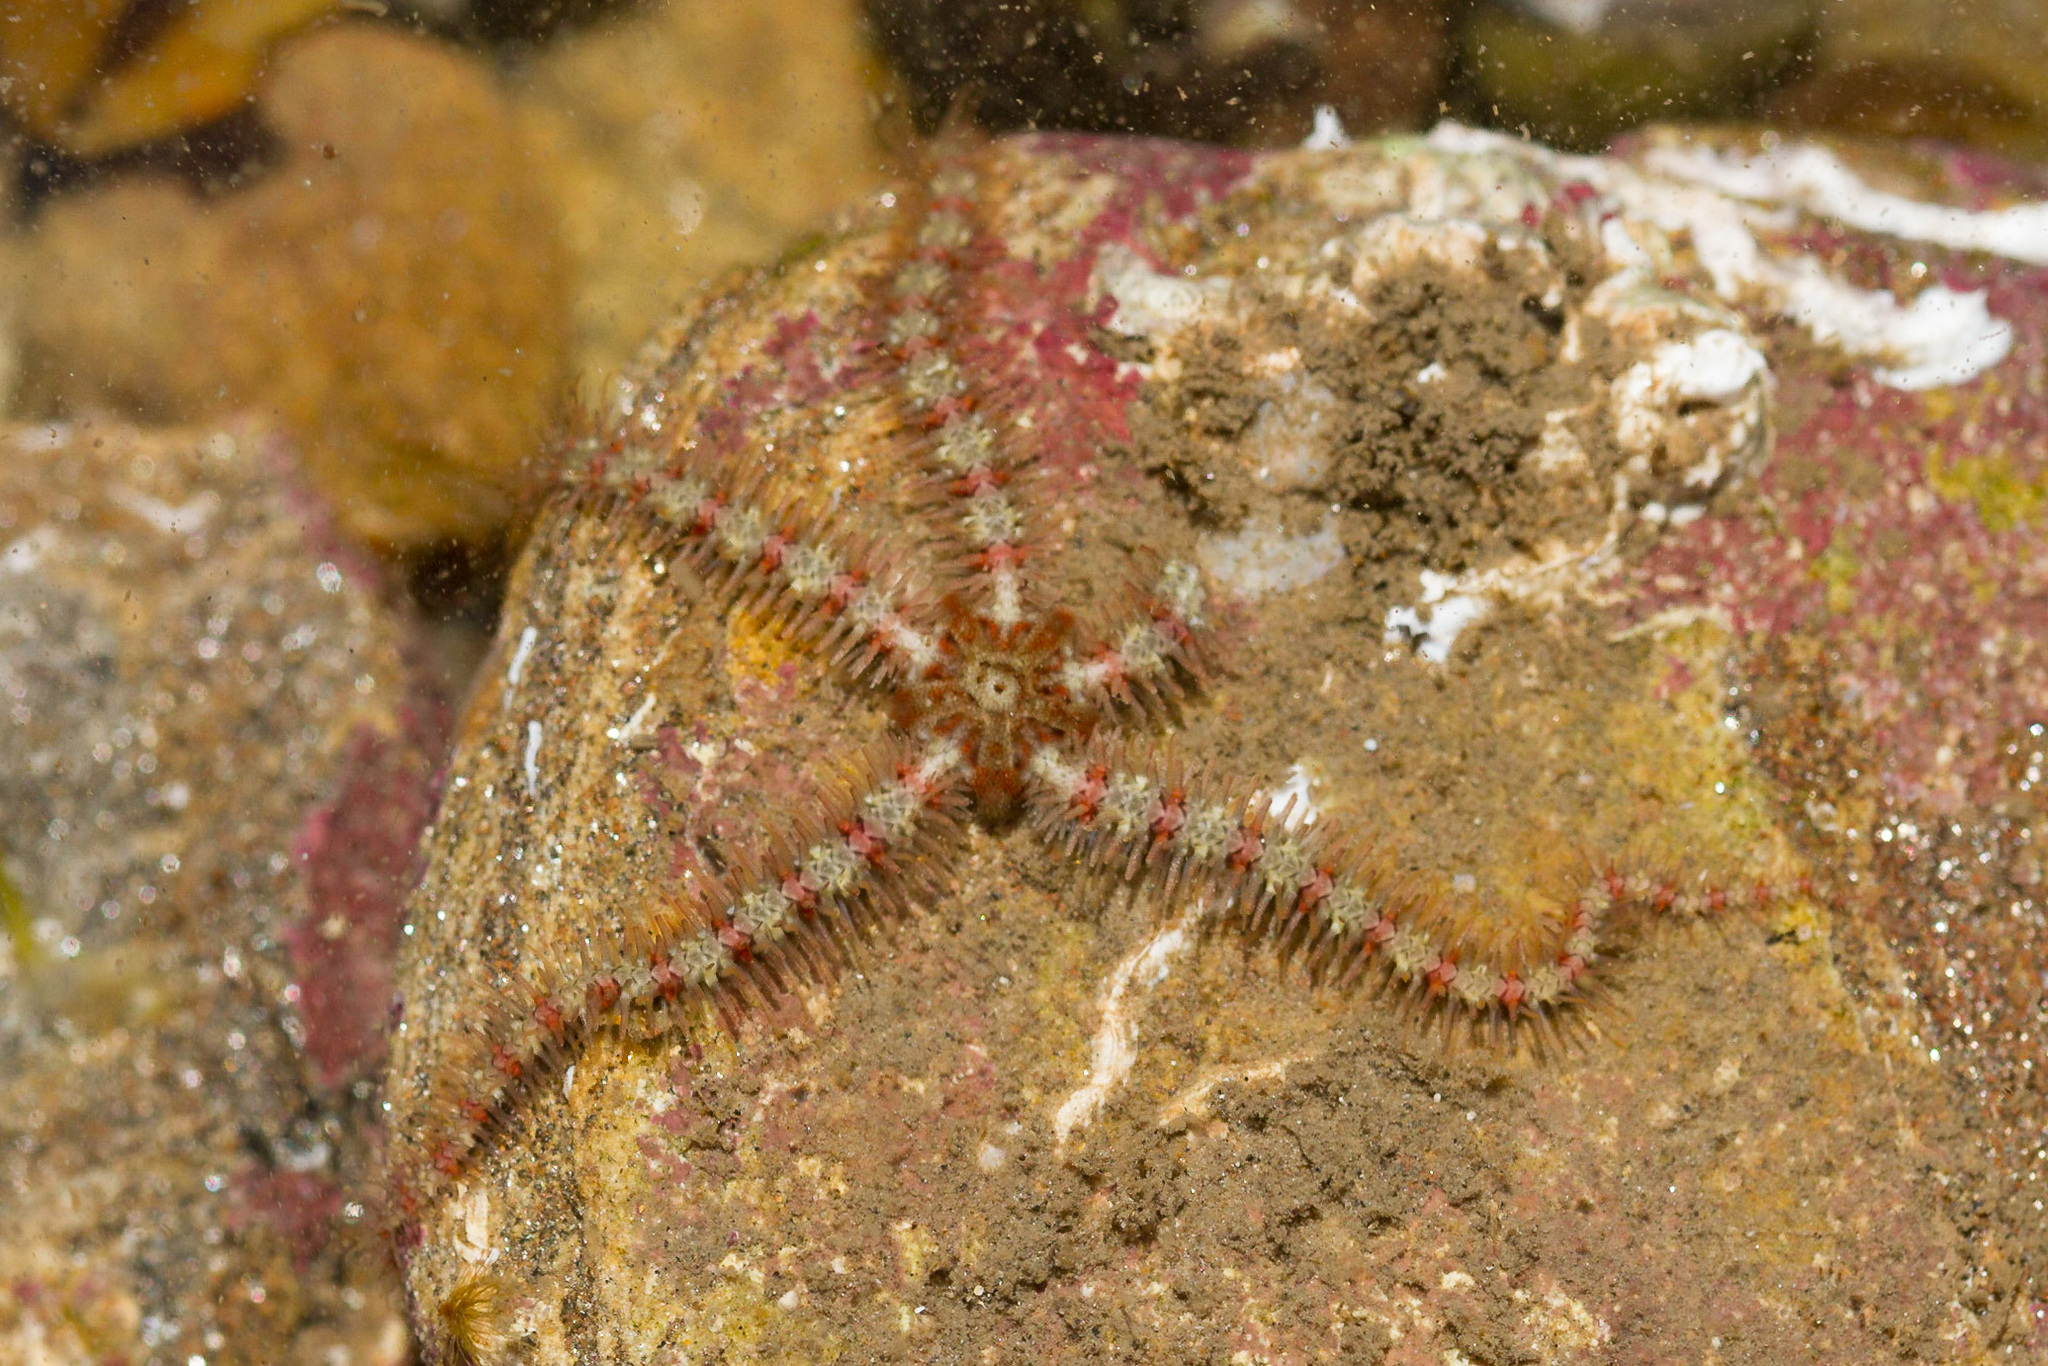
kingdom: Animalia
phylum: Echinodermata
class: Ophiuroidea
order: Amphilepidida
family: Ophiotrichidae
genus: Ophiothrix
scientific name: Ophiothrix fragilis
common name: Common brittlestar
